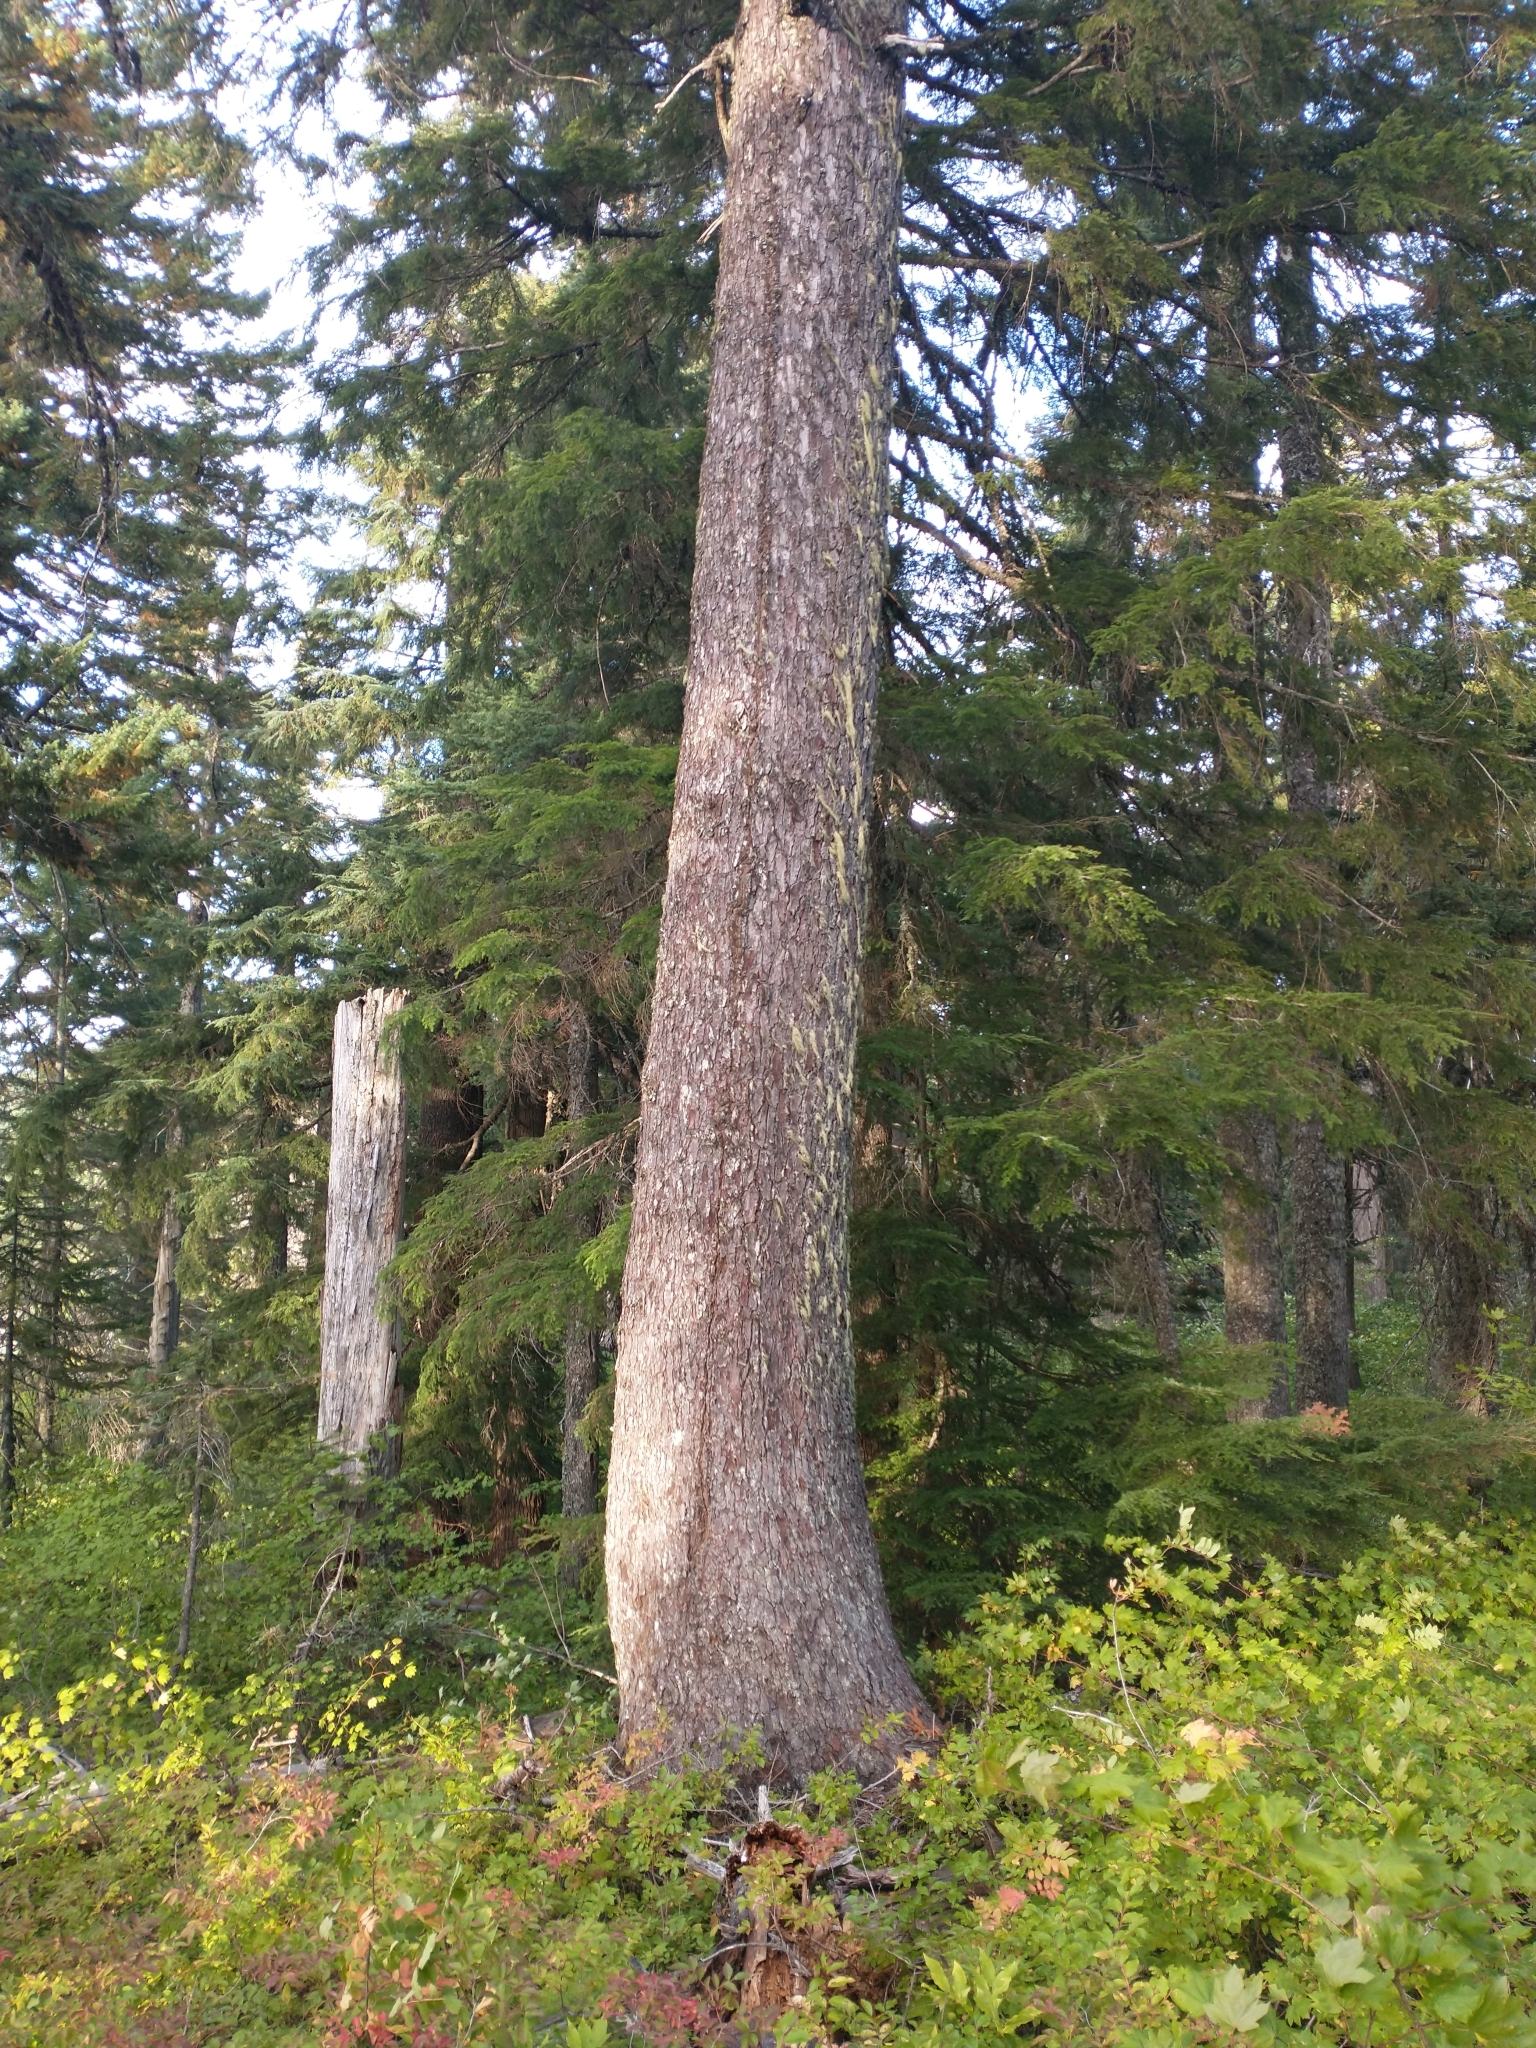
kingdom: Plantae
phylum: Tracheophyta
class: Pinopsida
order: Pinales
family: Pinaceae
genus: Abies
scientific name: Abies procera
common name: Noble fir
